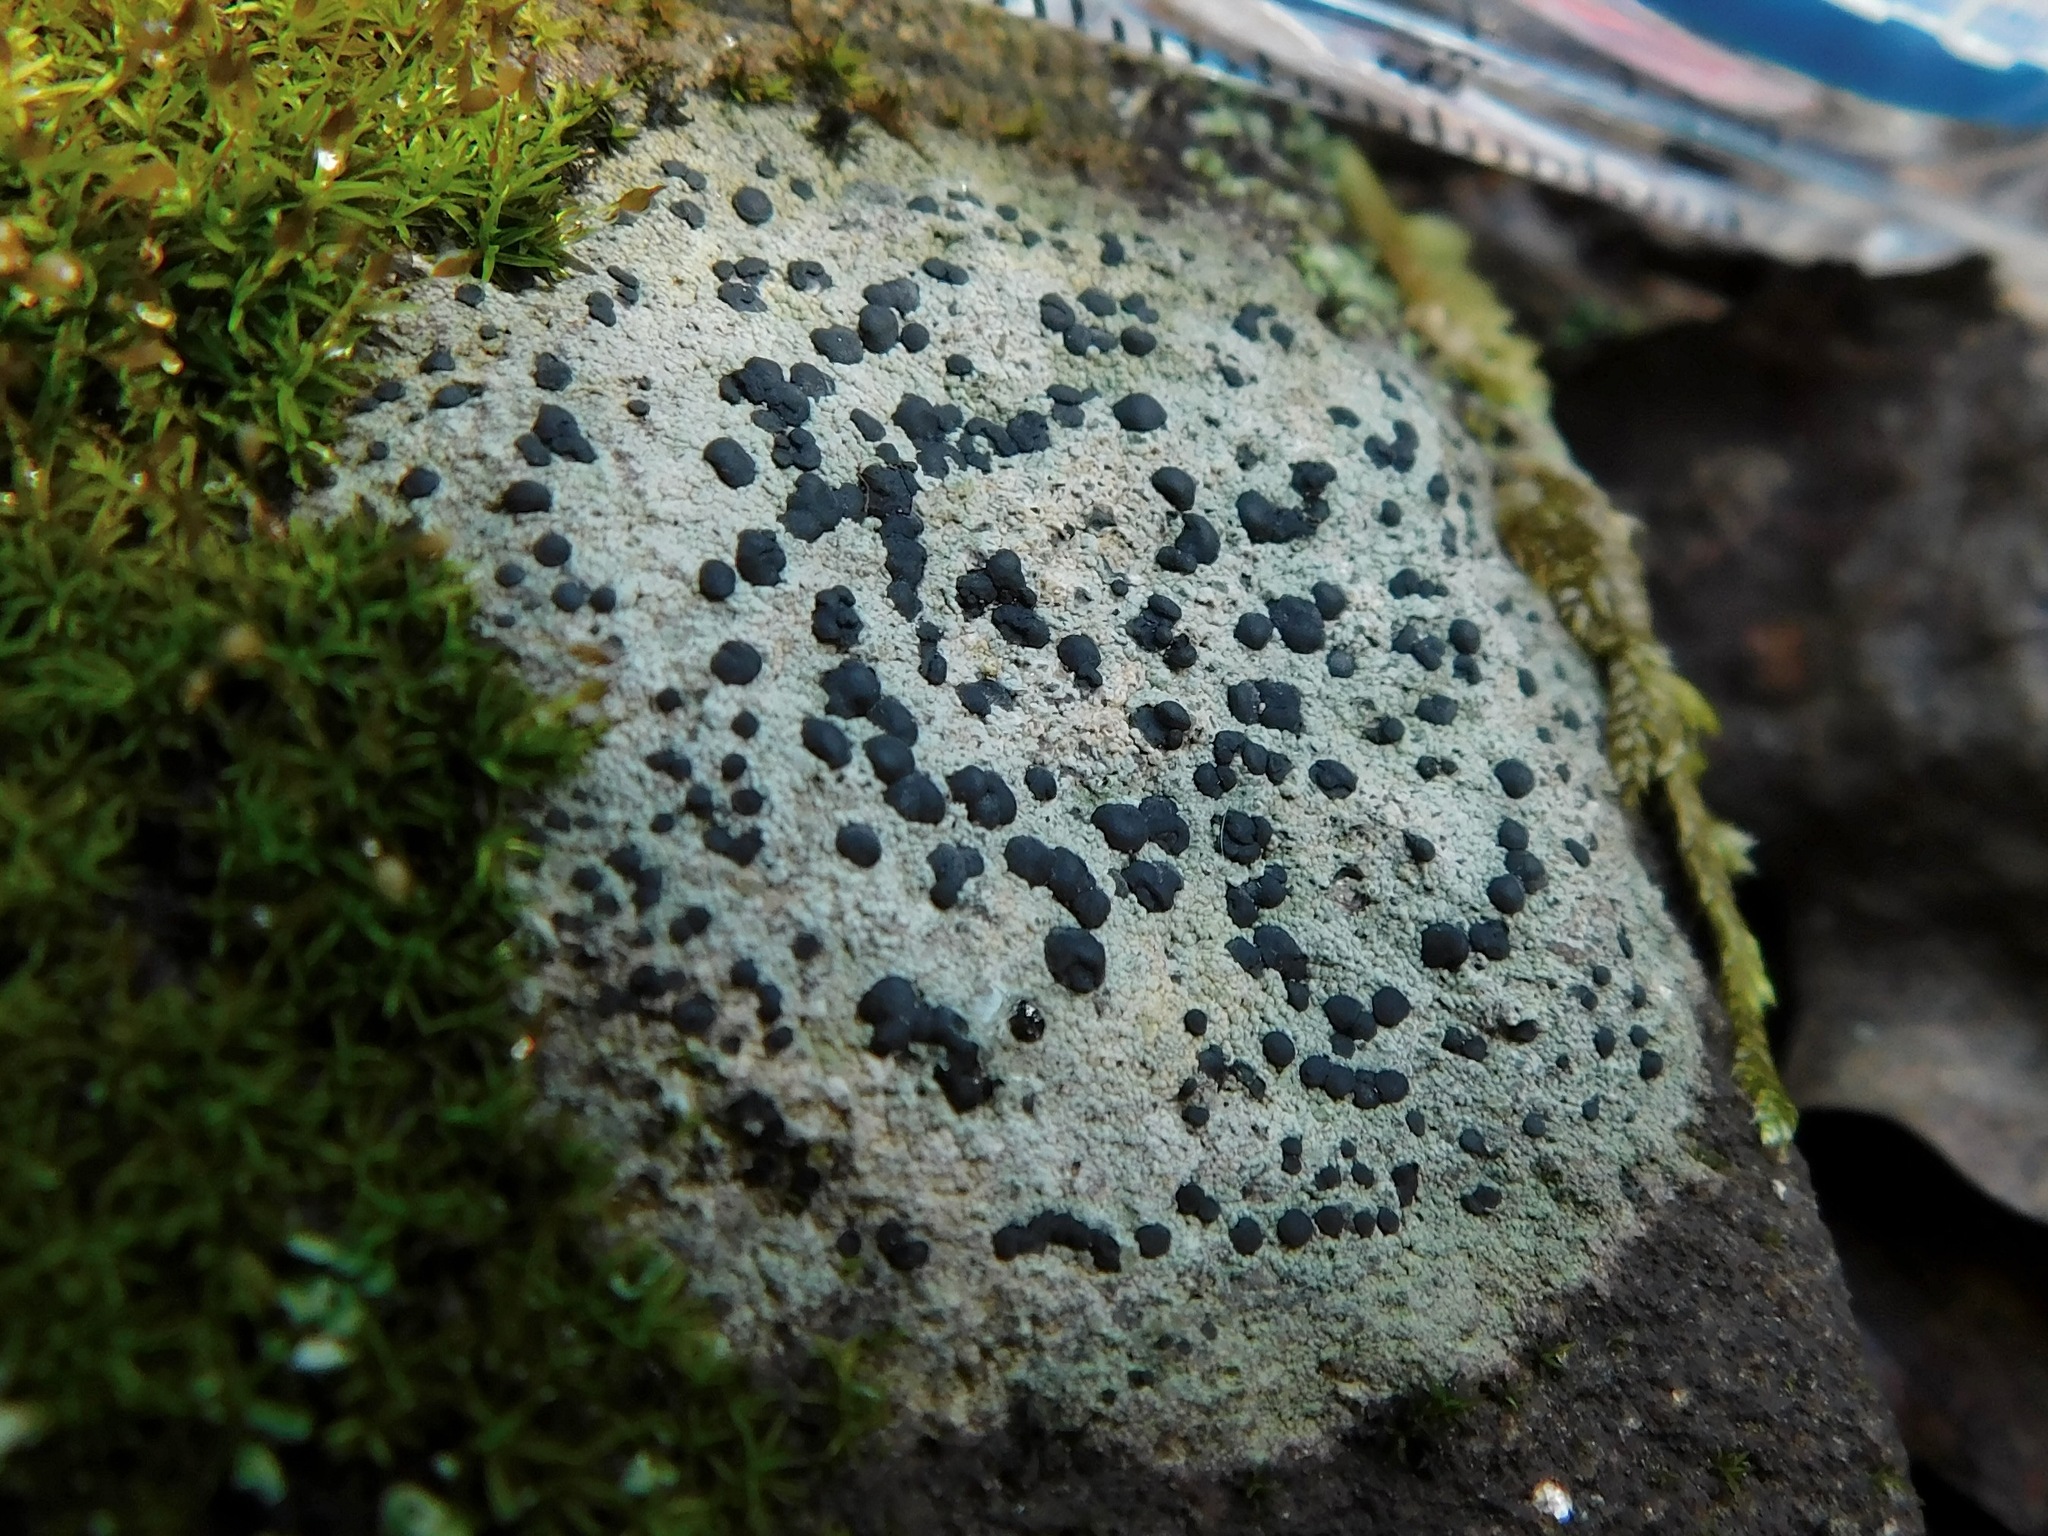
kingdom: Fungi
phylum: Ascomycota
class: Lecanoromycetes
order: Lecideales
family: Lecideaceae
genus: Porpidia
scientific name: Porpidia contraponenda
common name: Diverse porpidia lichen
